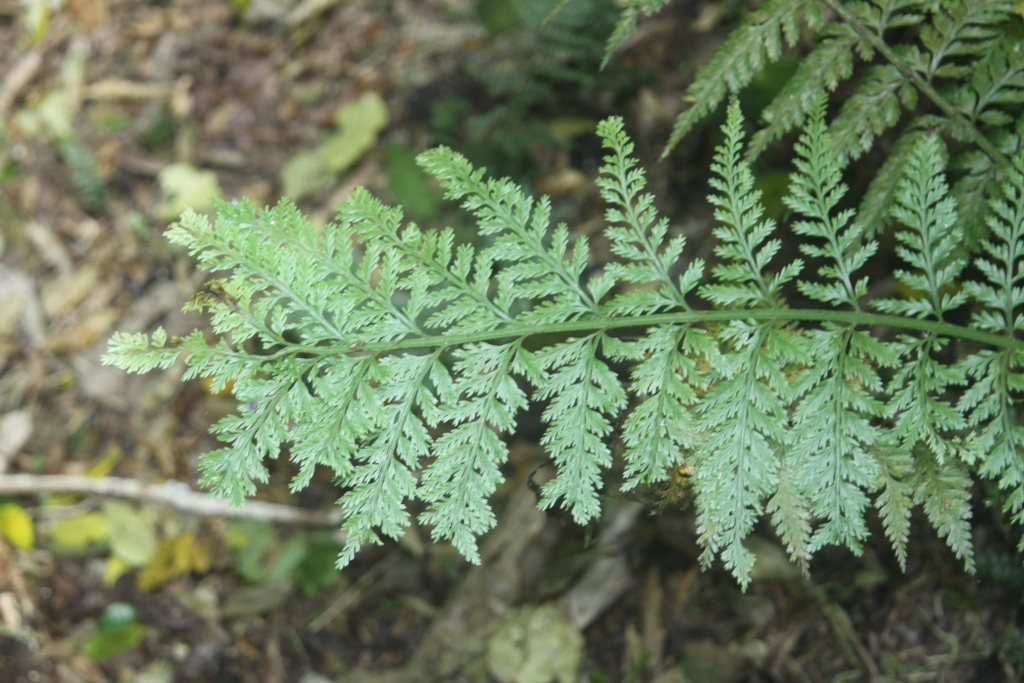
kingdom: Plantae
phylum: Tracheophyta
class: Polypodiopsida
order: Polypodiales
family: Aspleniaceae
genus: Asplenium
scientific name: Asplenium bulbiferum
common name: Mother fern
